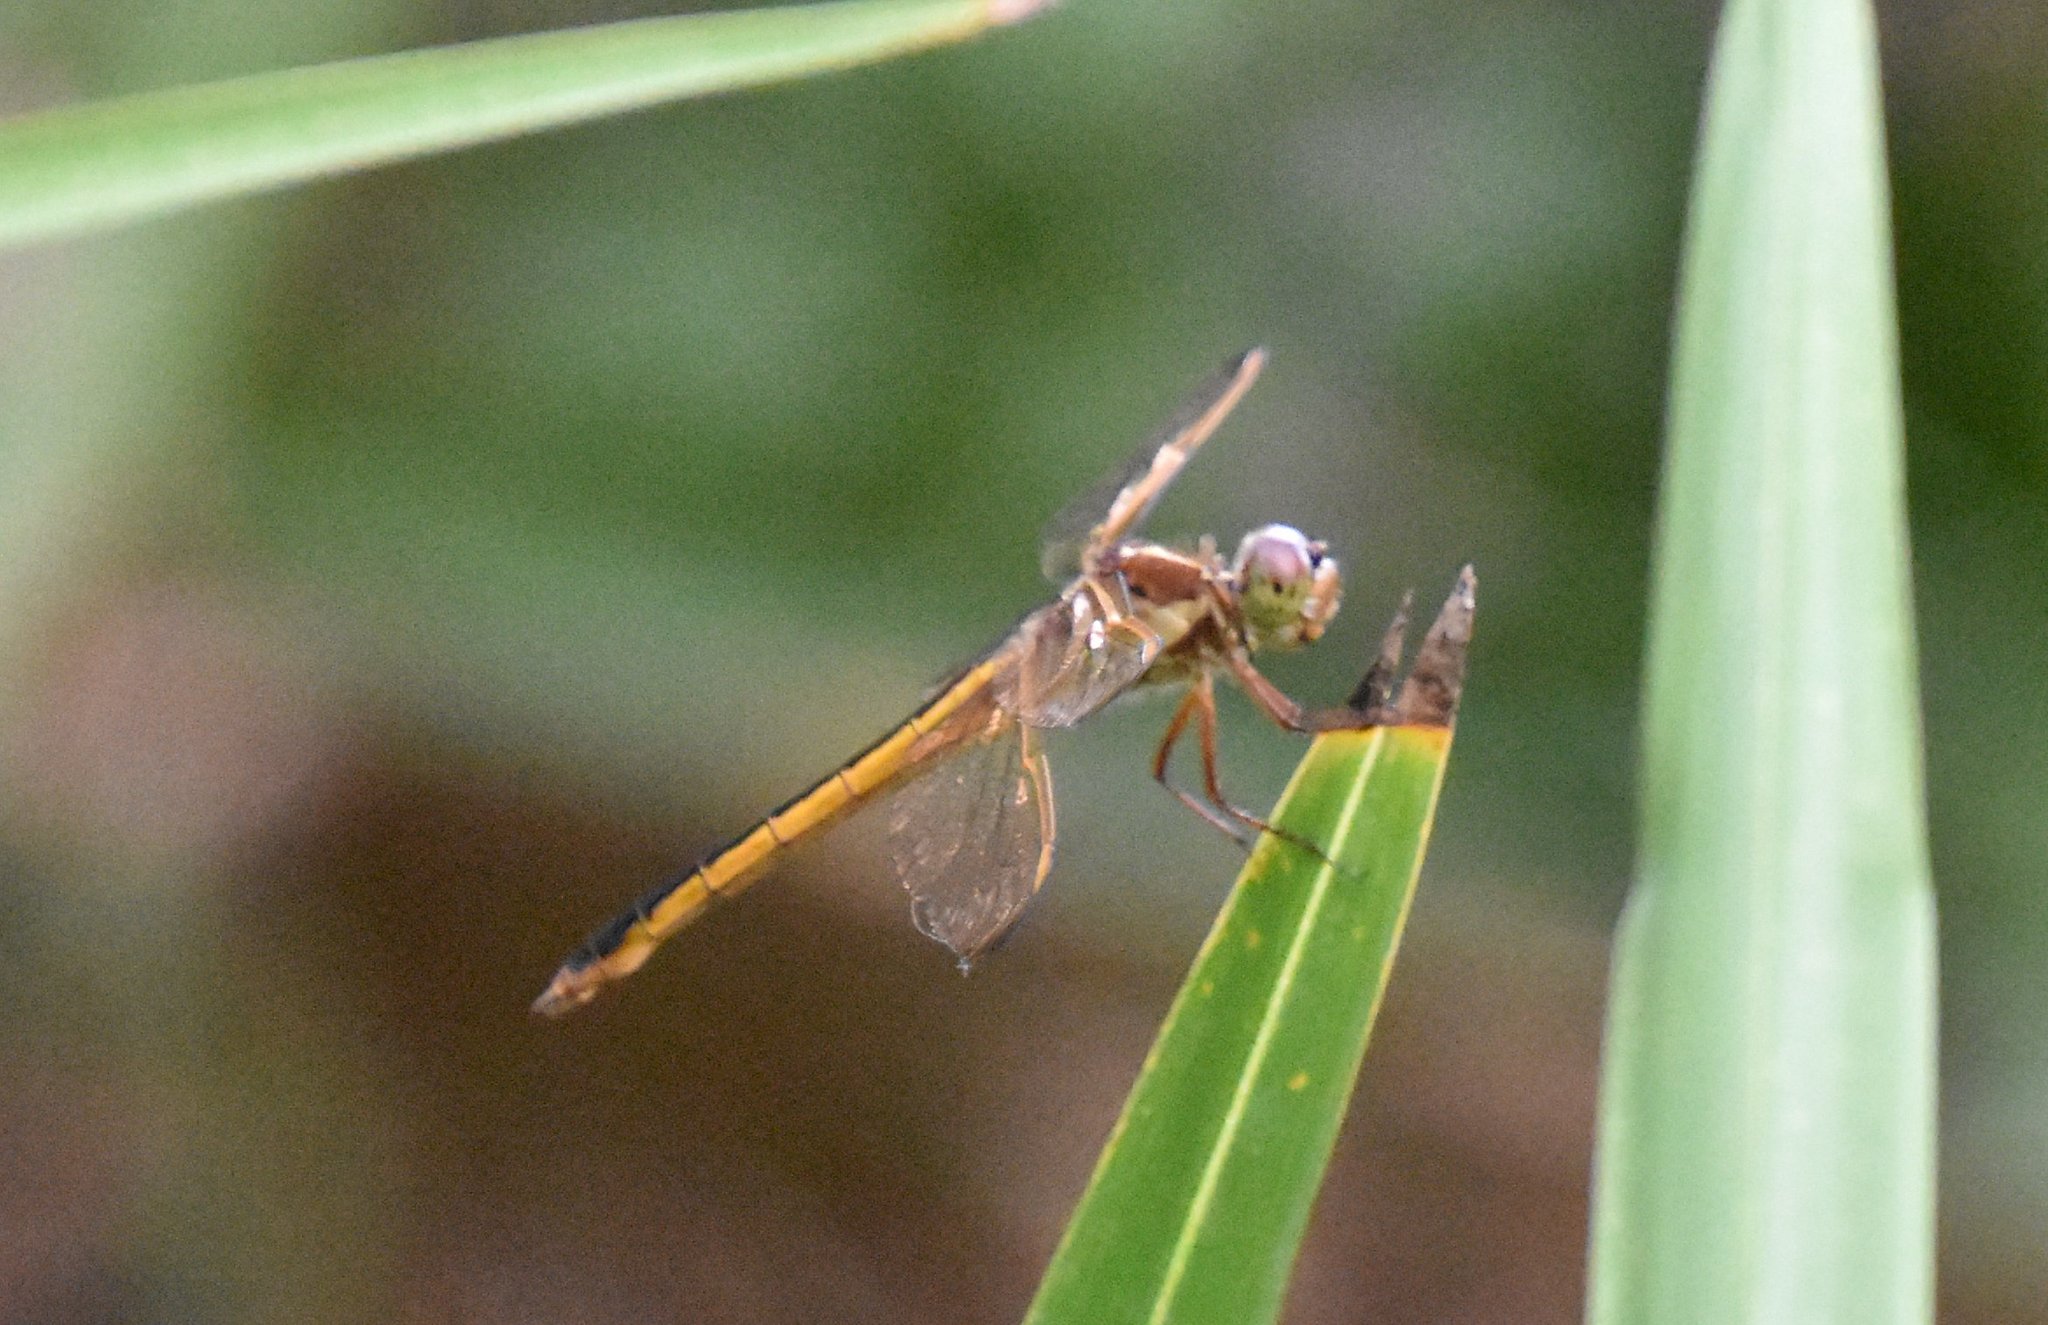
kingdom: Animalia
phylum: Arthropoda
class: Insecta
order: Odonata
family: Libellulidae
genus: Libellula
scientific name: Libellula needhami
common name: Needham's skimmer
